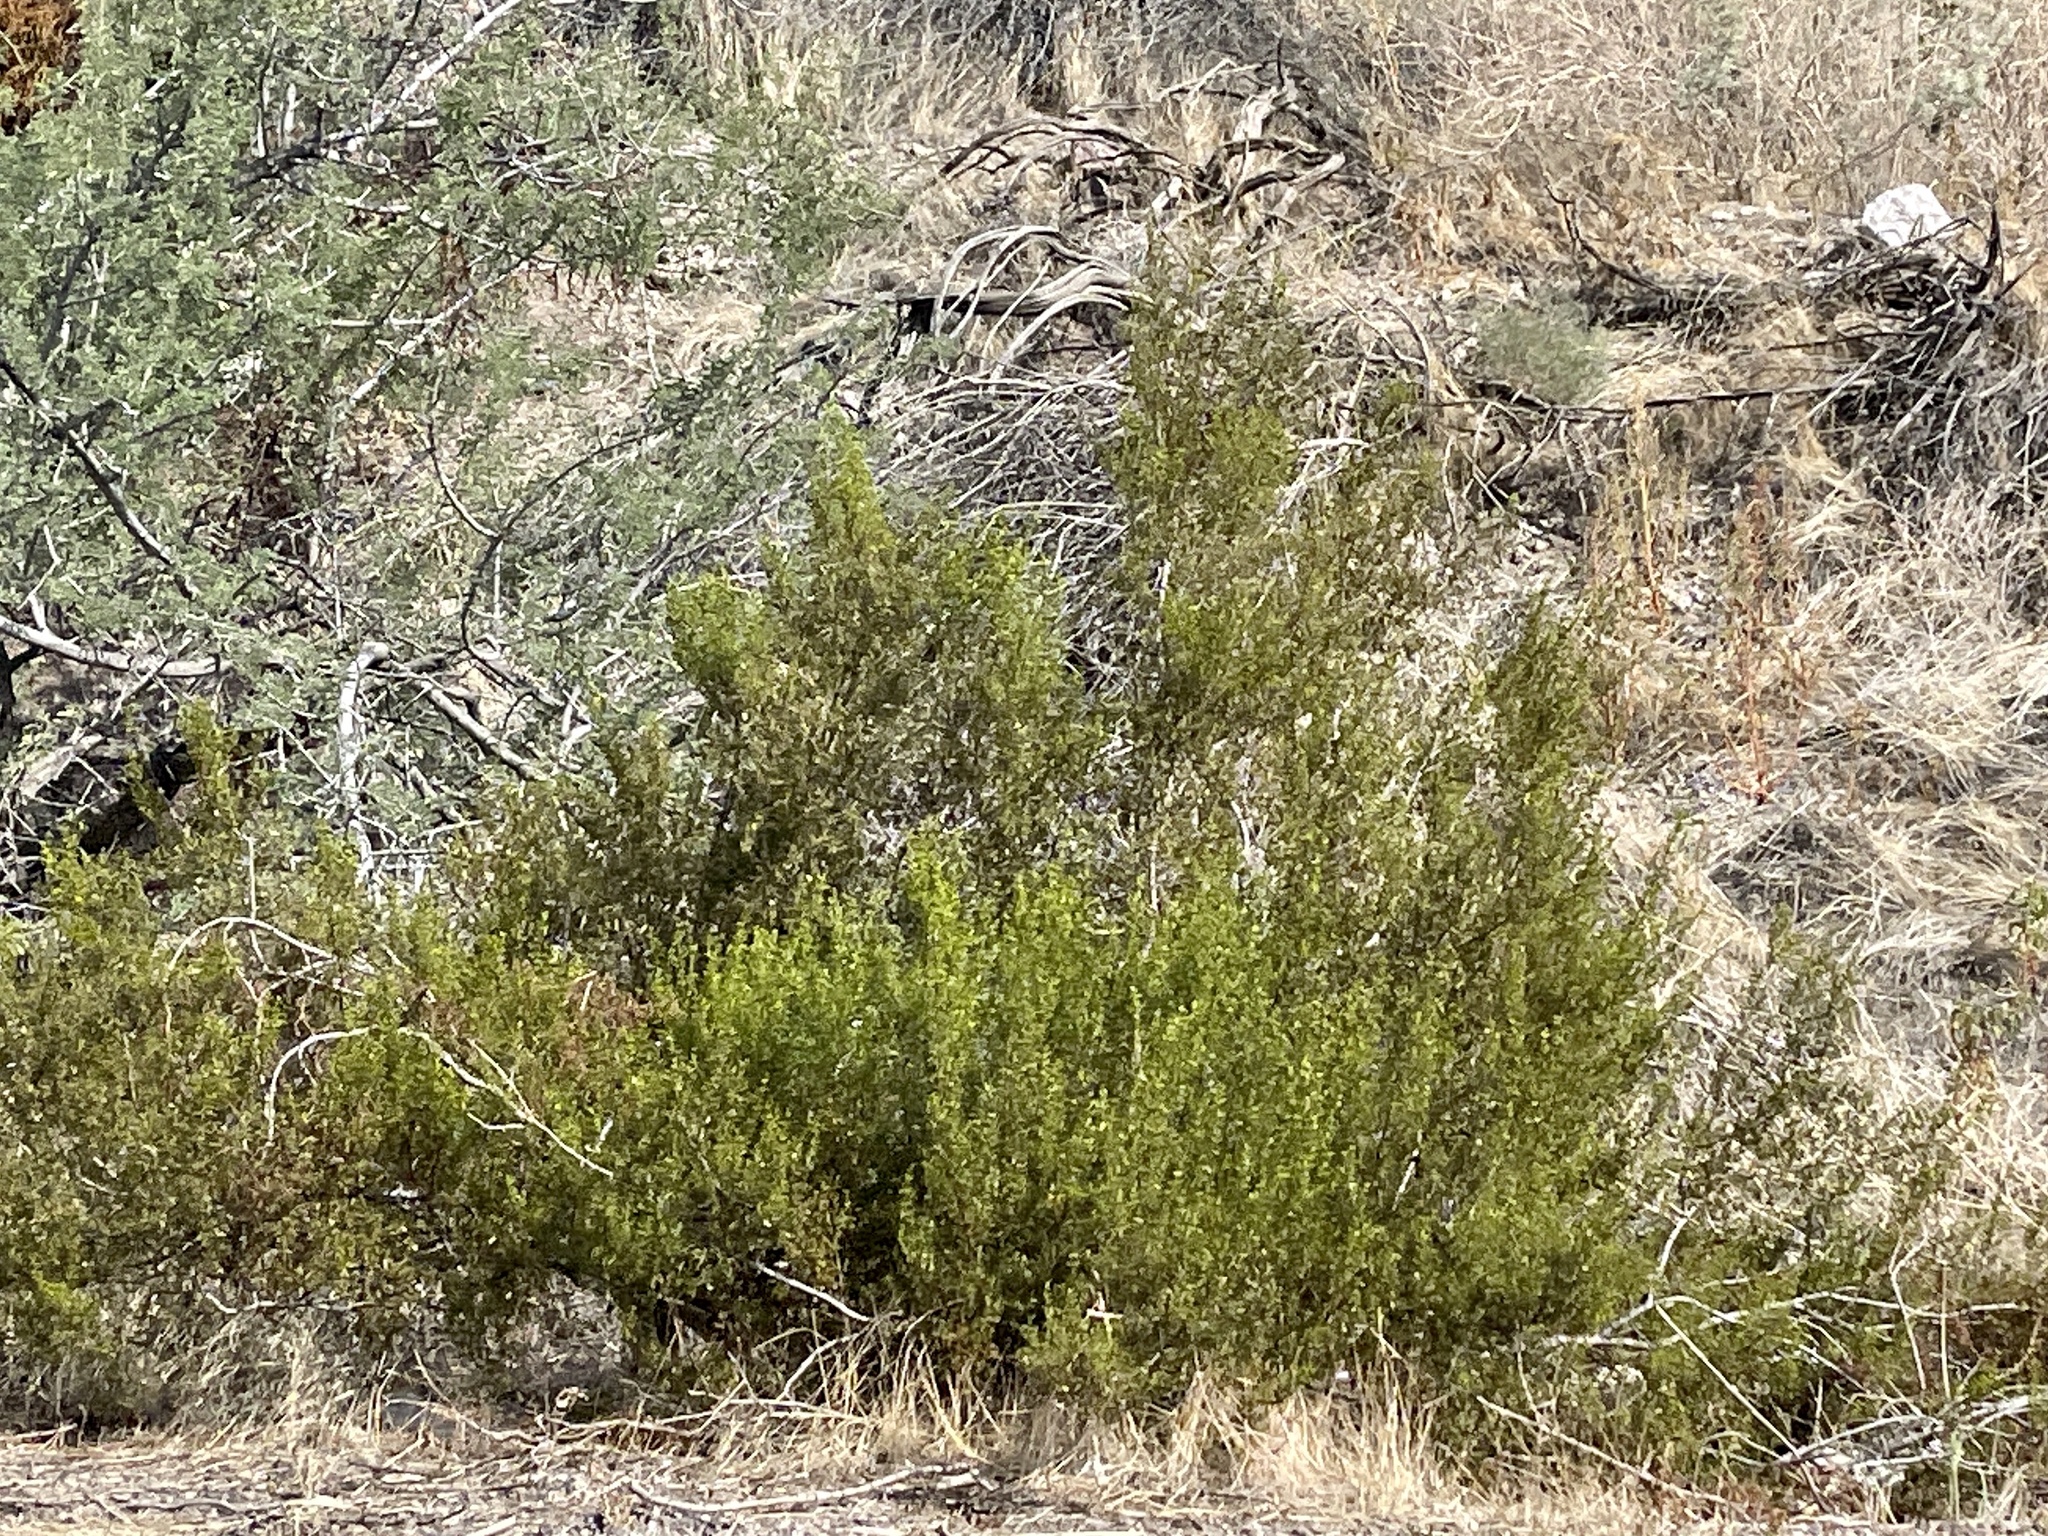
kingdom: Plantae
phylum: Tracheophyta
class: Magnoliopsida
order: Zygophyllales
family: Zygophyllaceae
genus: Larrea
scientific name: Larrea tridentata
